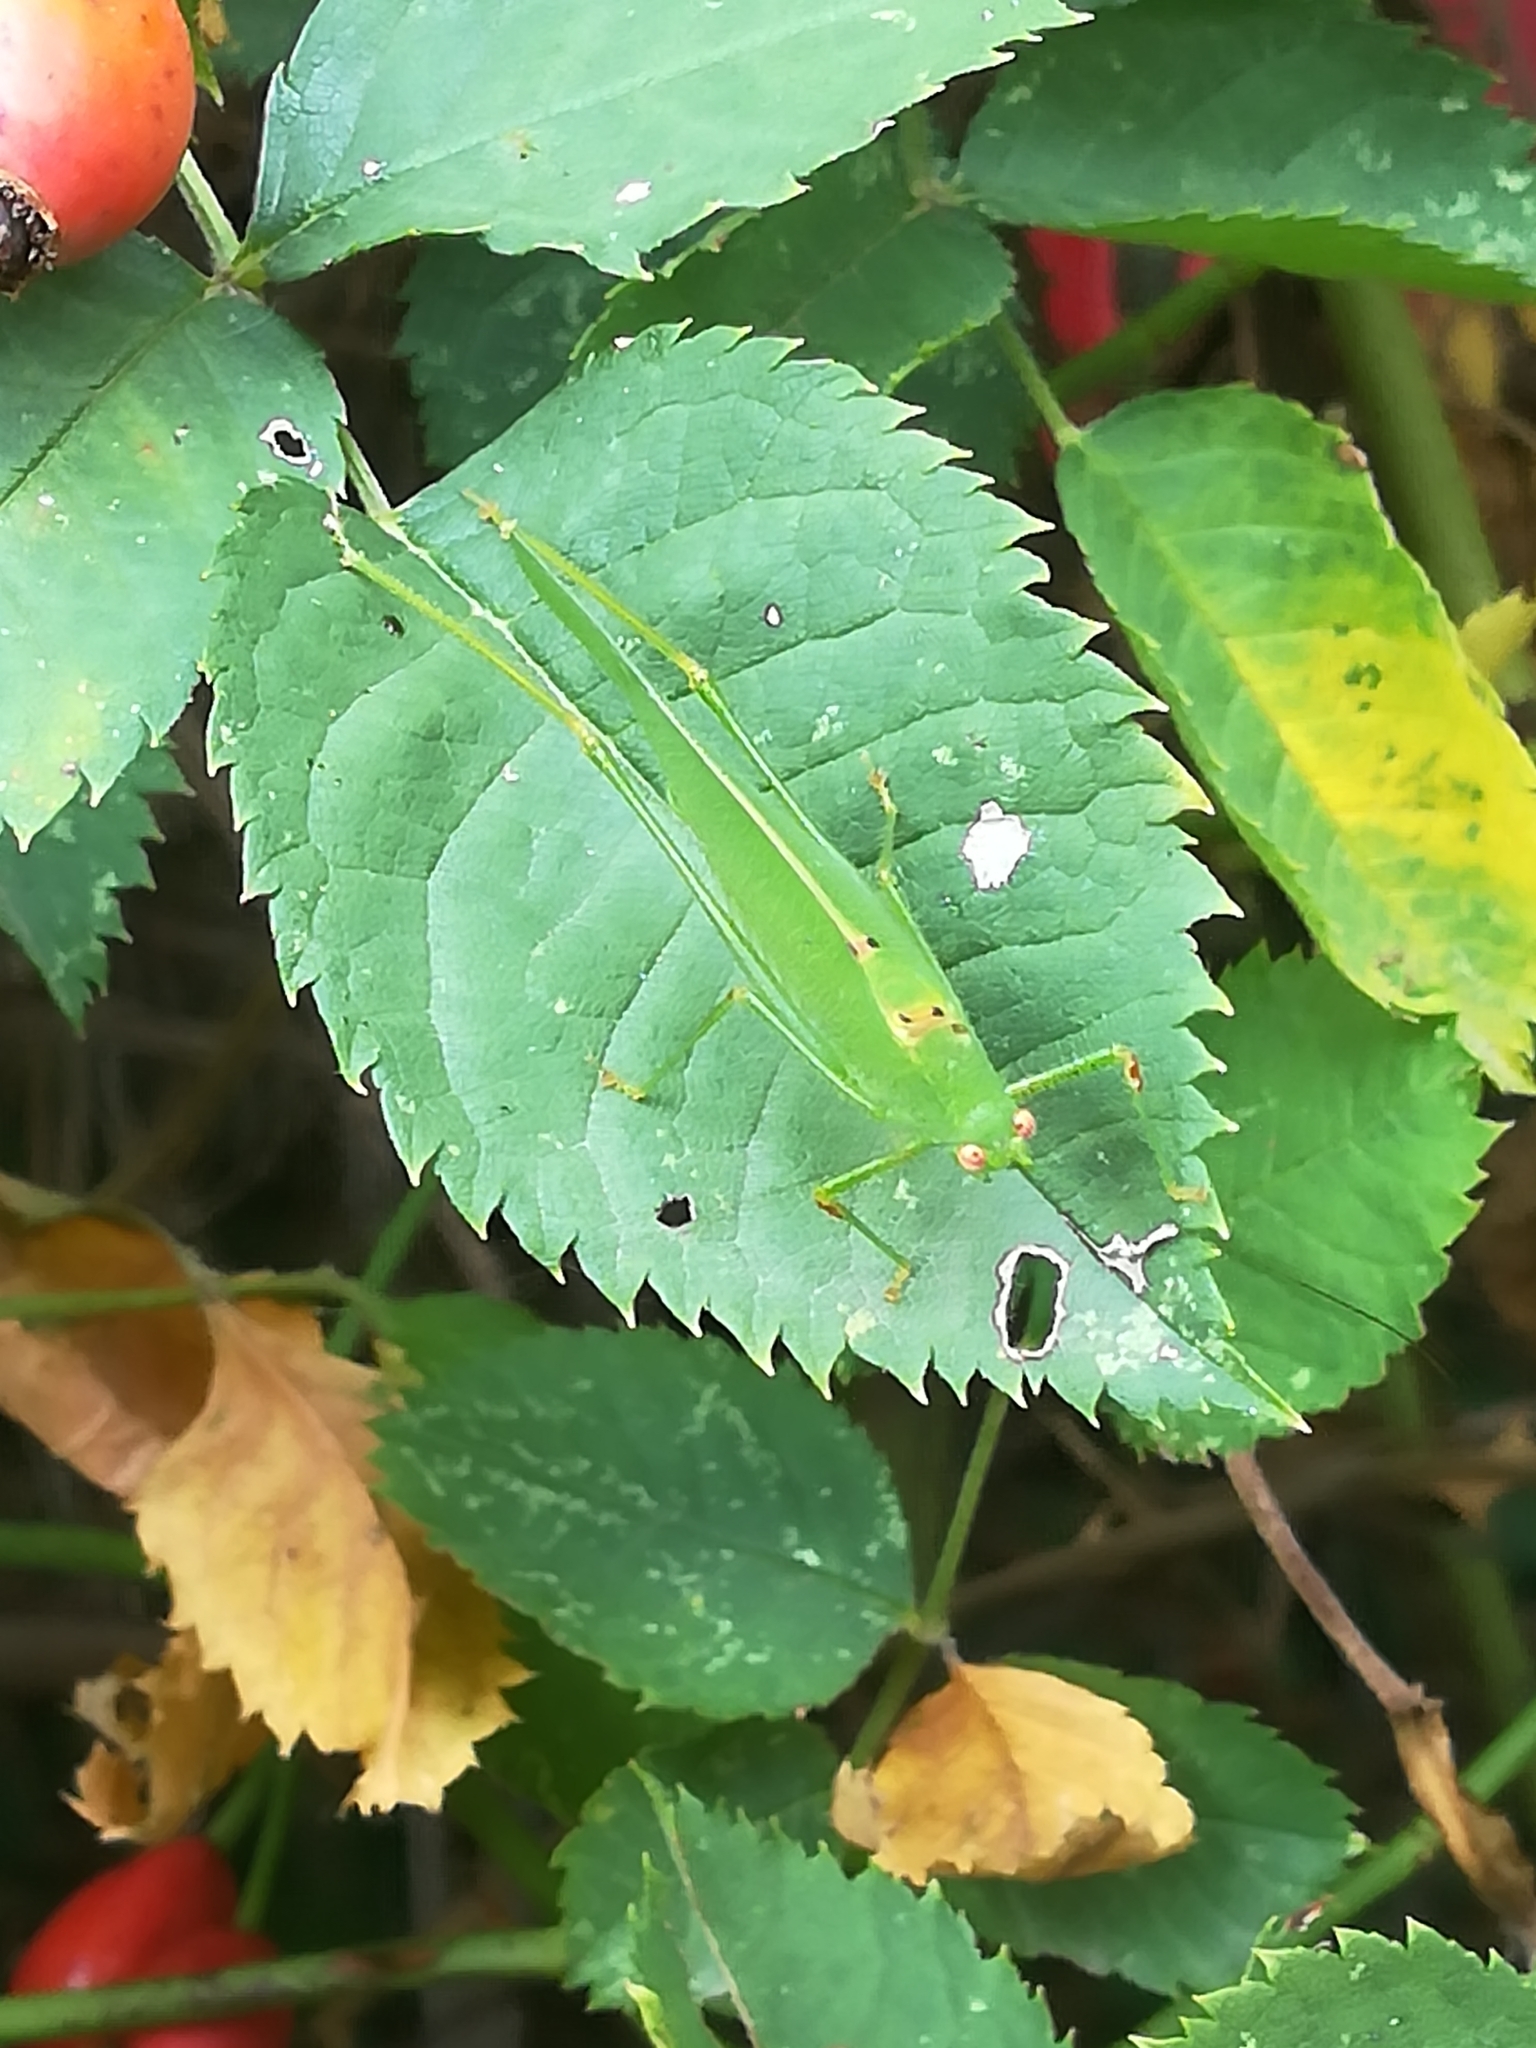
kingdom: Animalia
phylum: Arthropoda
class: Insecta
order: Orthoptera
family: Tettigoniidae
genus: Phaneroptera
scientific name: Phaneroptera nana
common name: Southern sickle bush-cricket
